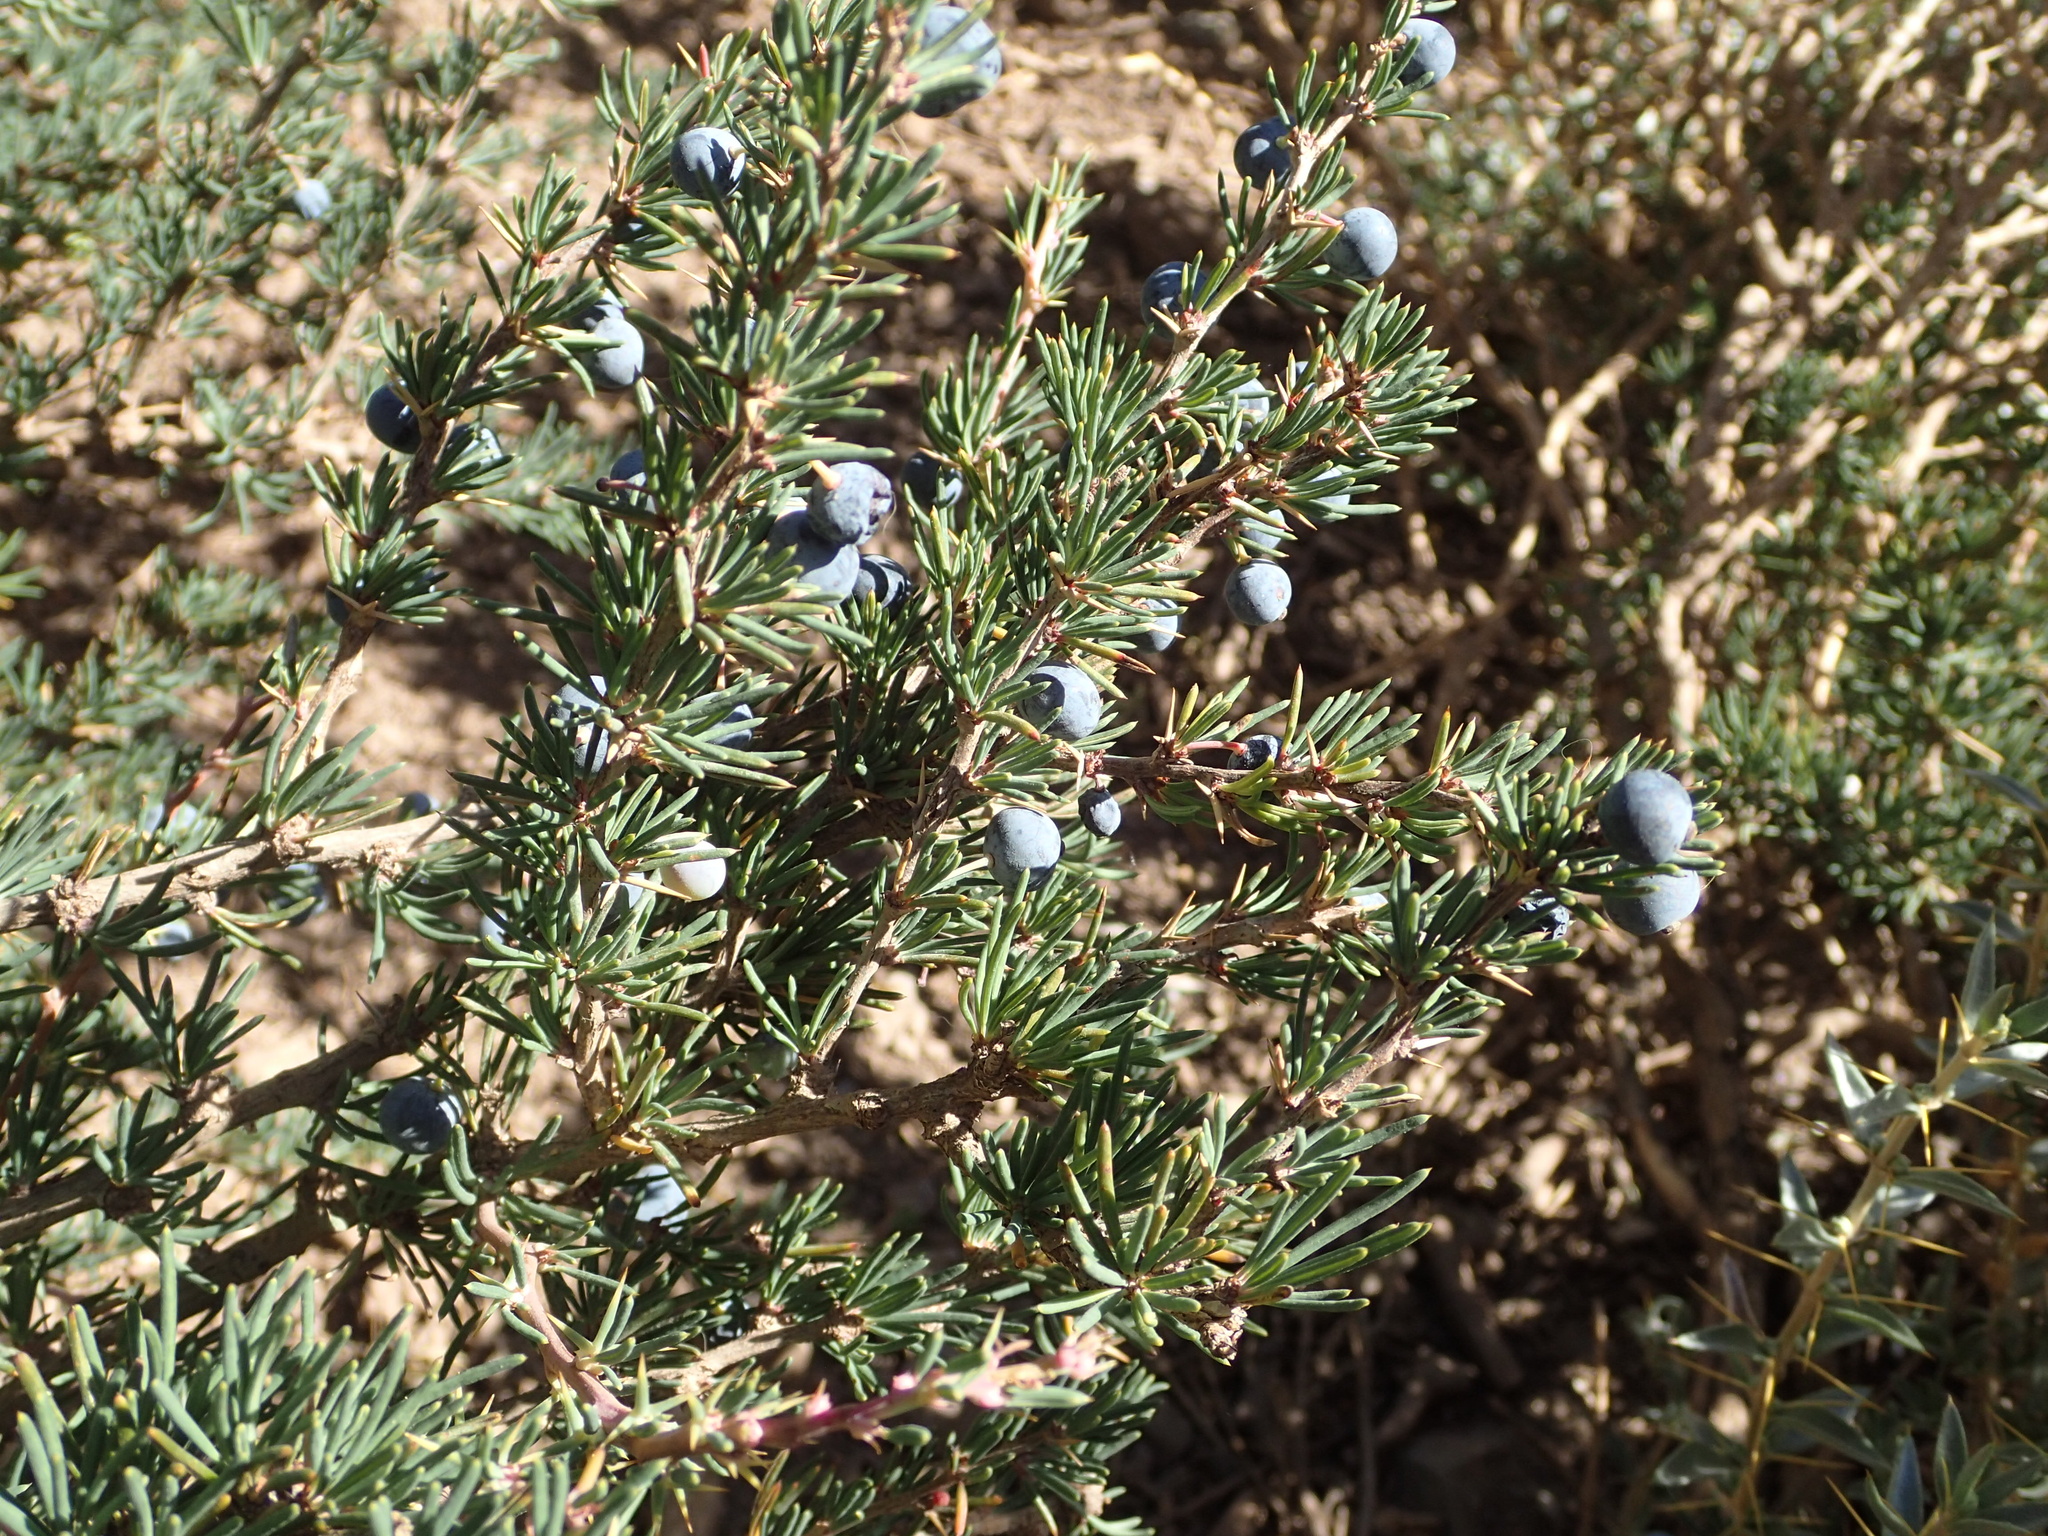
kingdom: Plantae
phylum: Tracheophyta
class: Magnoliopsida
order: Ranunculales
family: Berberidaceae
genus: Berberis
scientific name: Berberis empetrifolia
